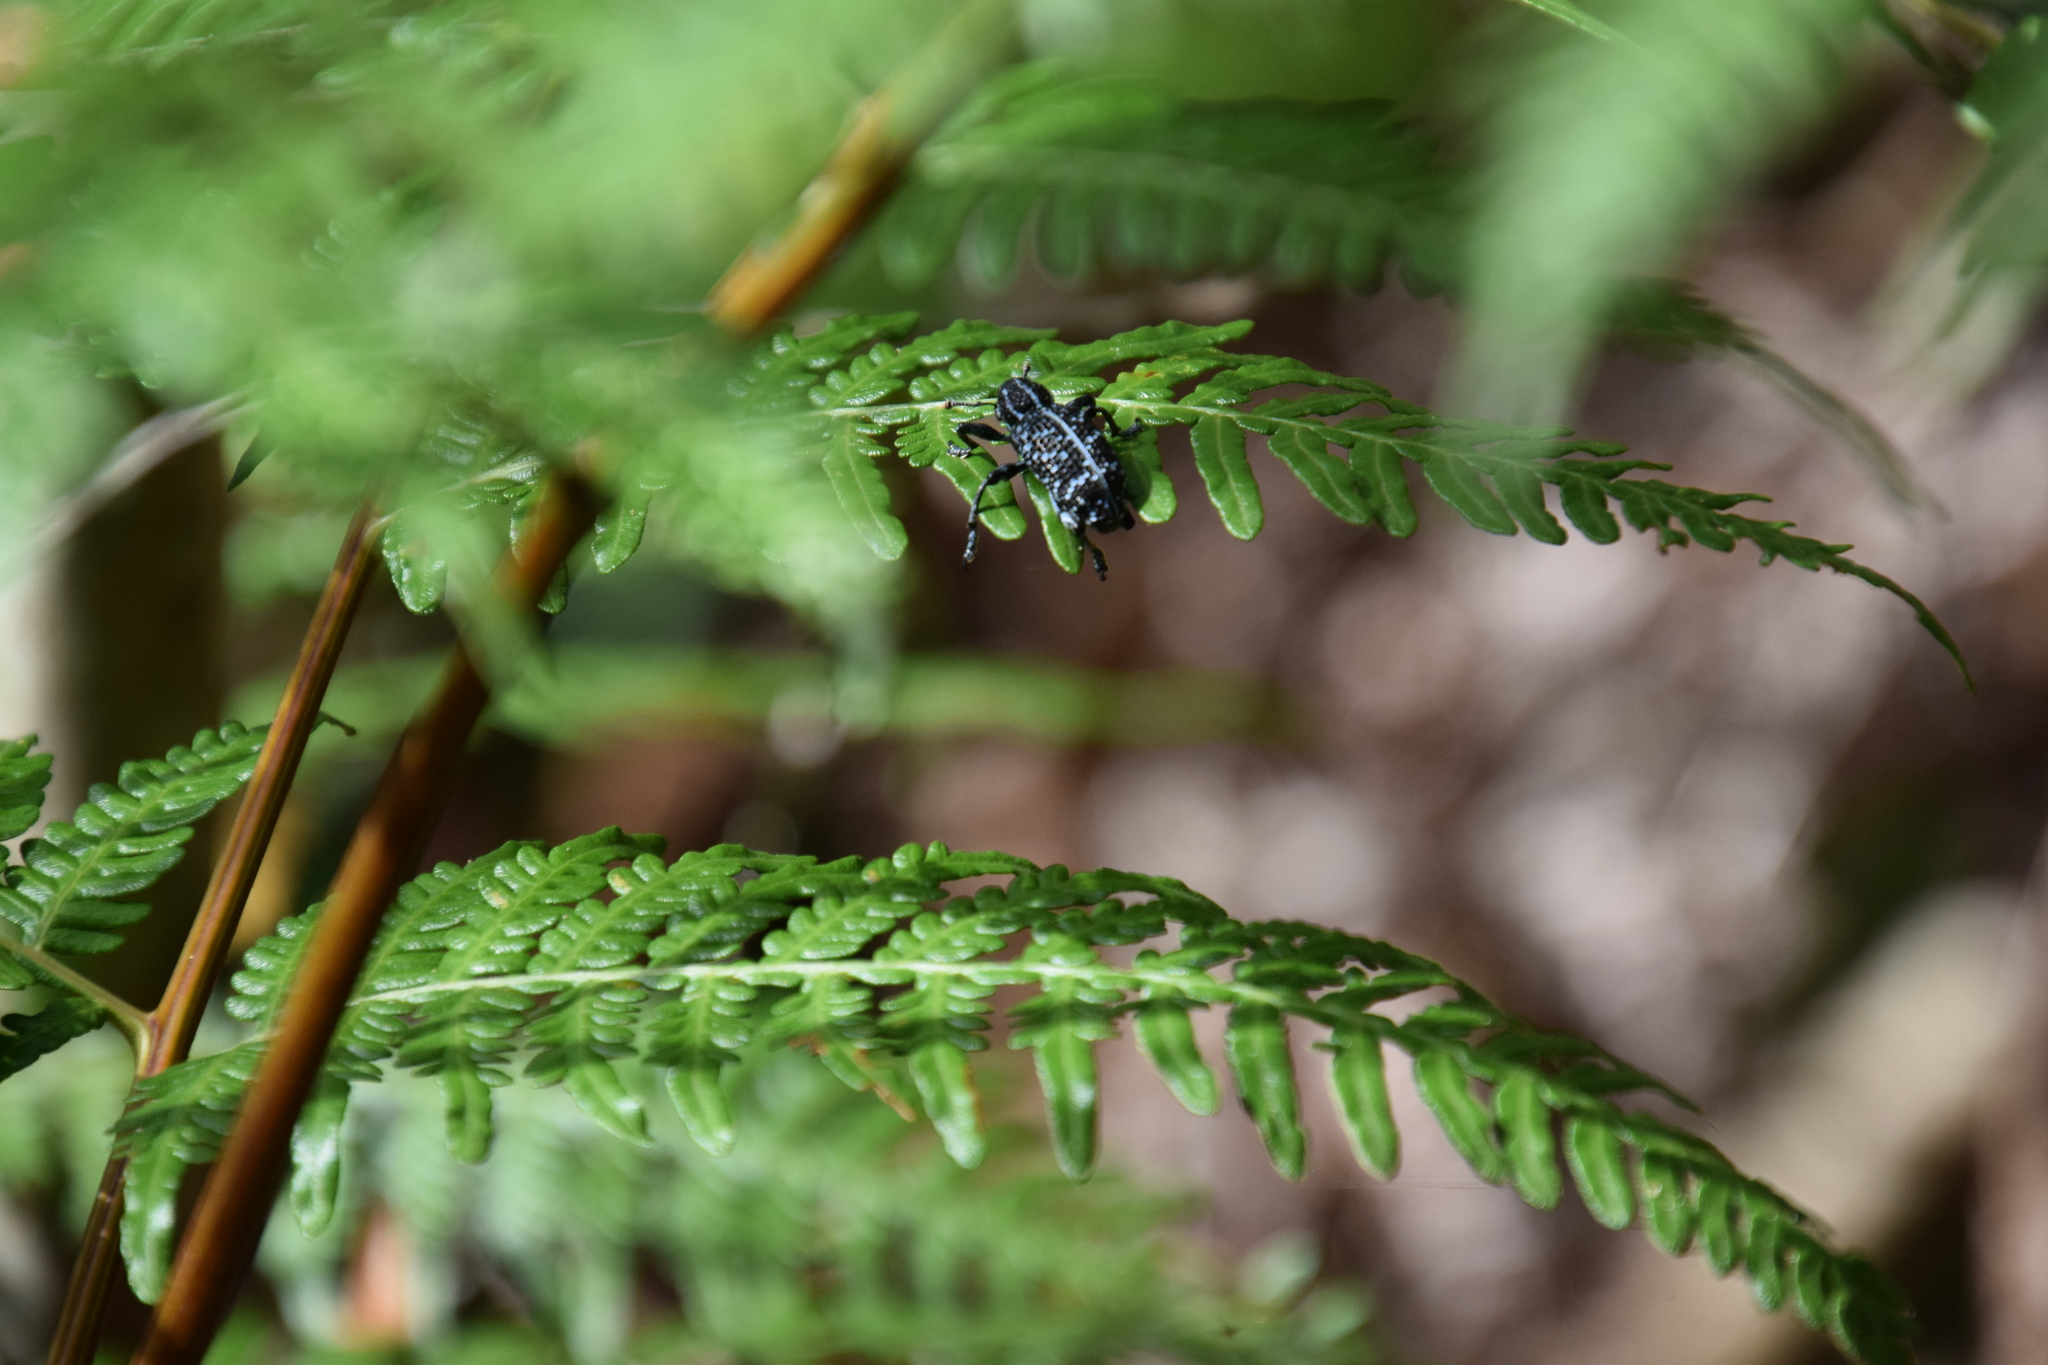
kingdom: Animalia
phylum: Arthropoda
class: Insecta
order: Coleoptera
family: Curculionidae
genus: Chrysolopus
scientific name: Chrysolopus spectabilis
